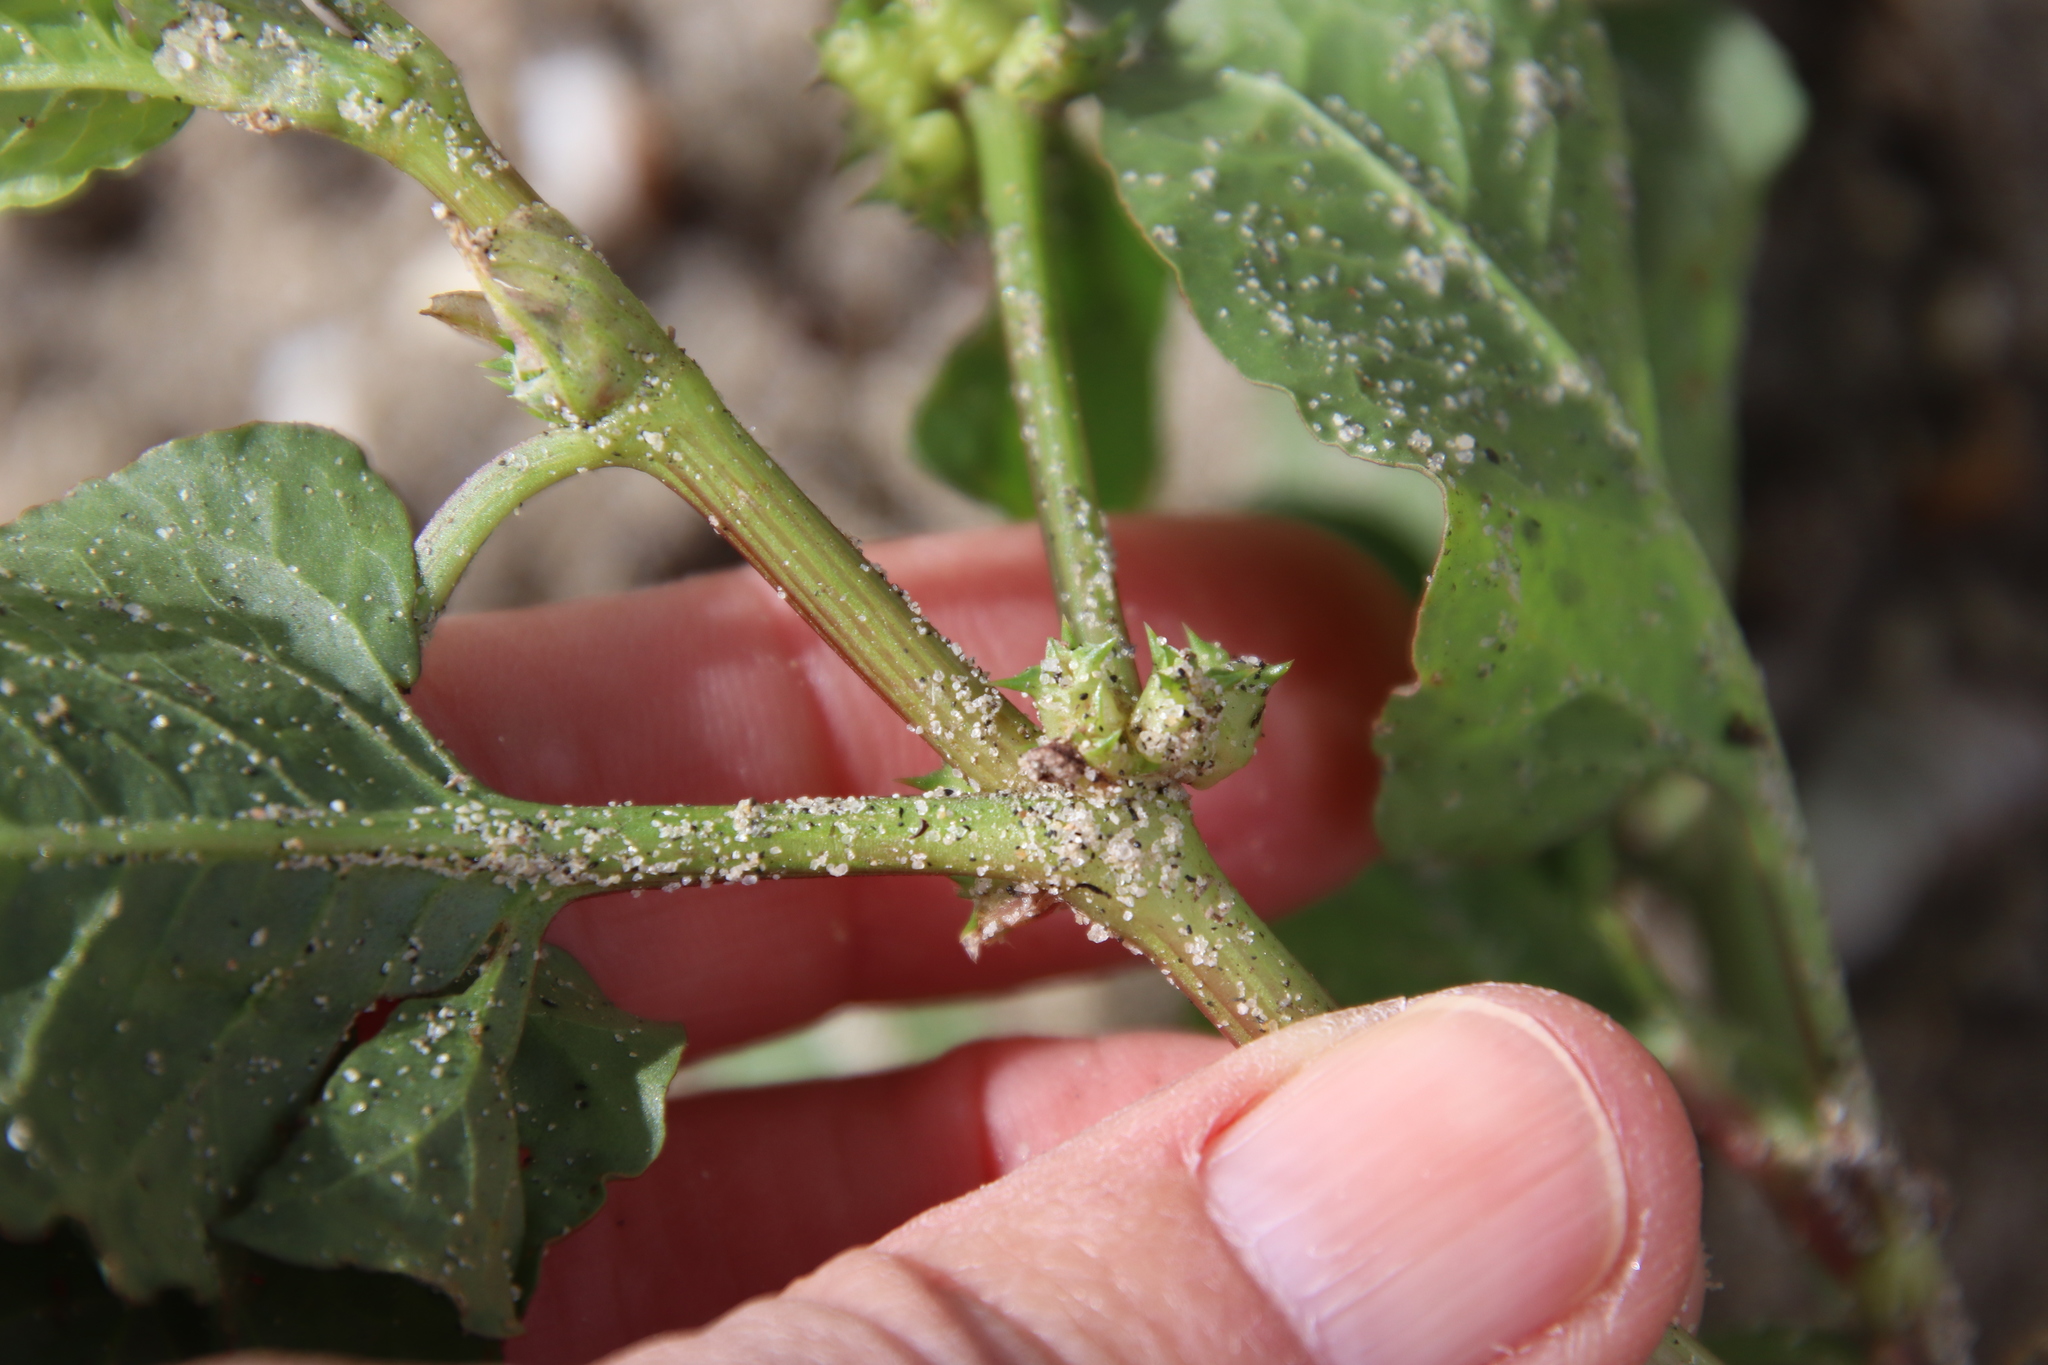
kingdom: Plantae
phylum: Tracheophyta
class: Magnoliopsida
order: Caryophyllales
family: Polygonaceae
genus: Rumex
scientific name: Rumex spinosus
